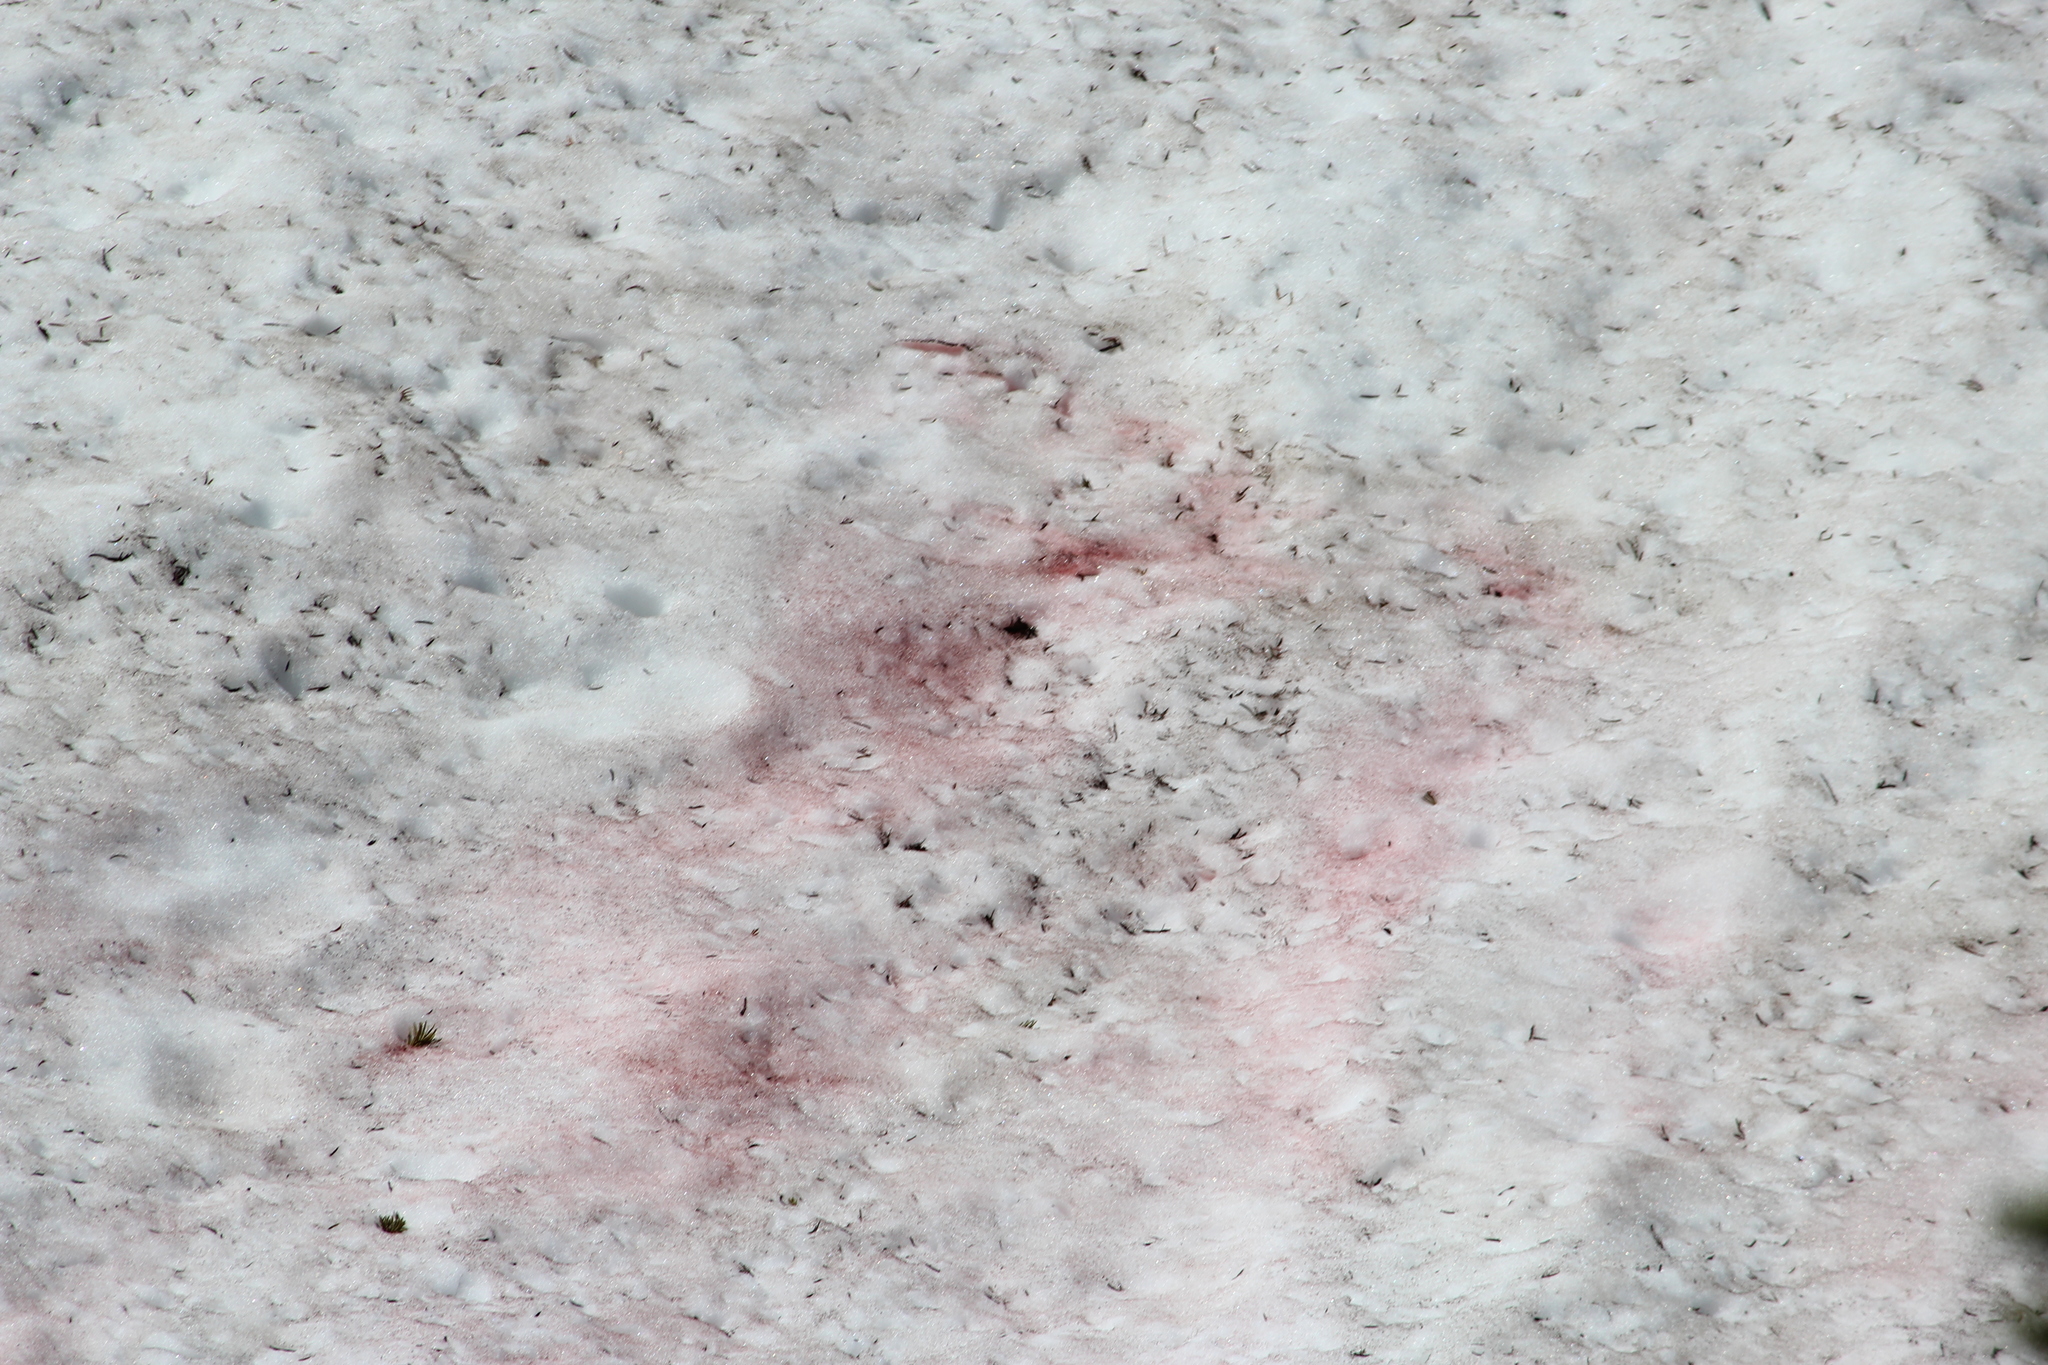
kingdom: Plantae
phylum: Chlorophyta
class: Chlorophyceae
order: Volvocales
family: Chlamydomonadaceae
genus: Chlamydomonas
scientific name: Chlamydomonas nivalis
